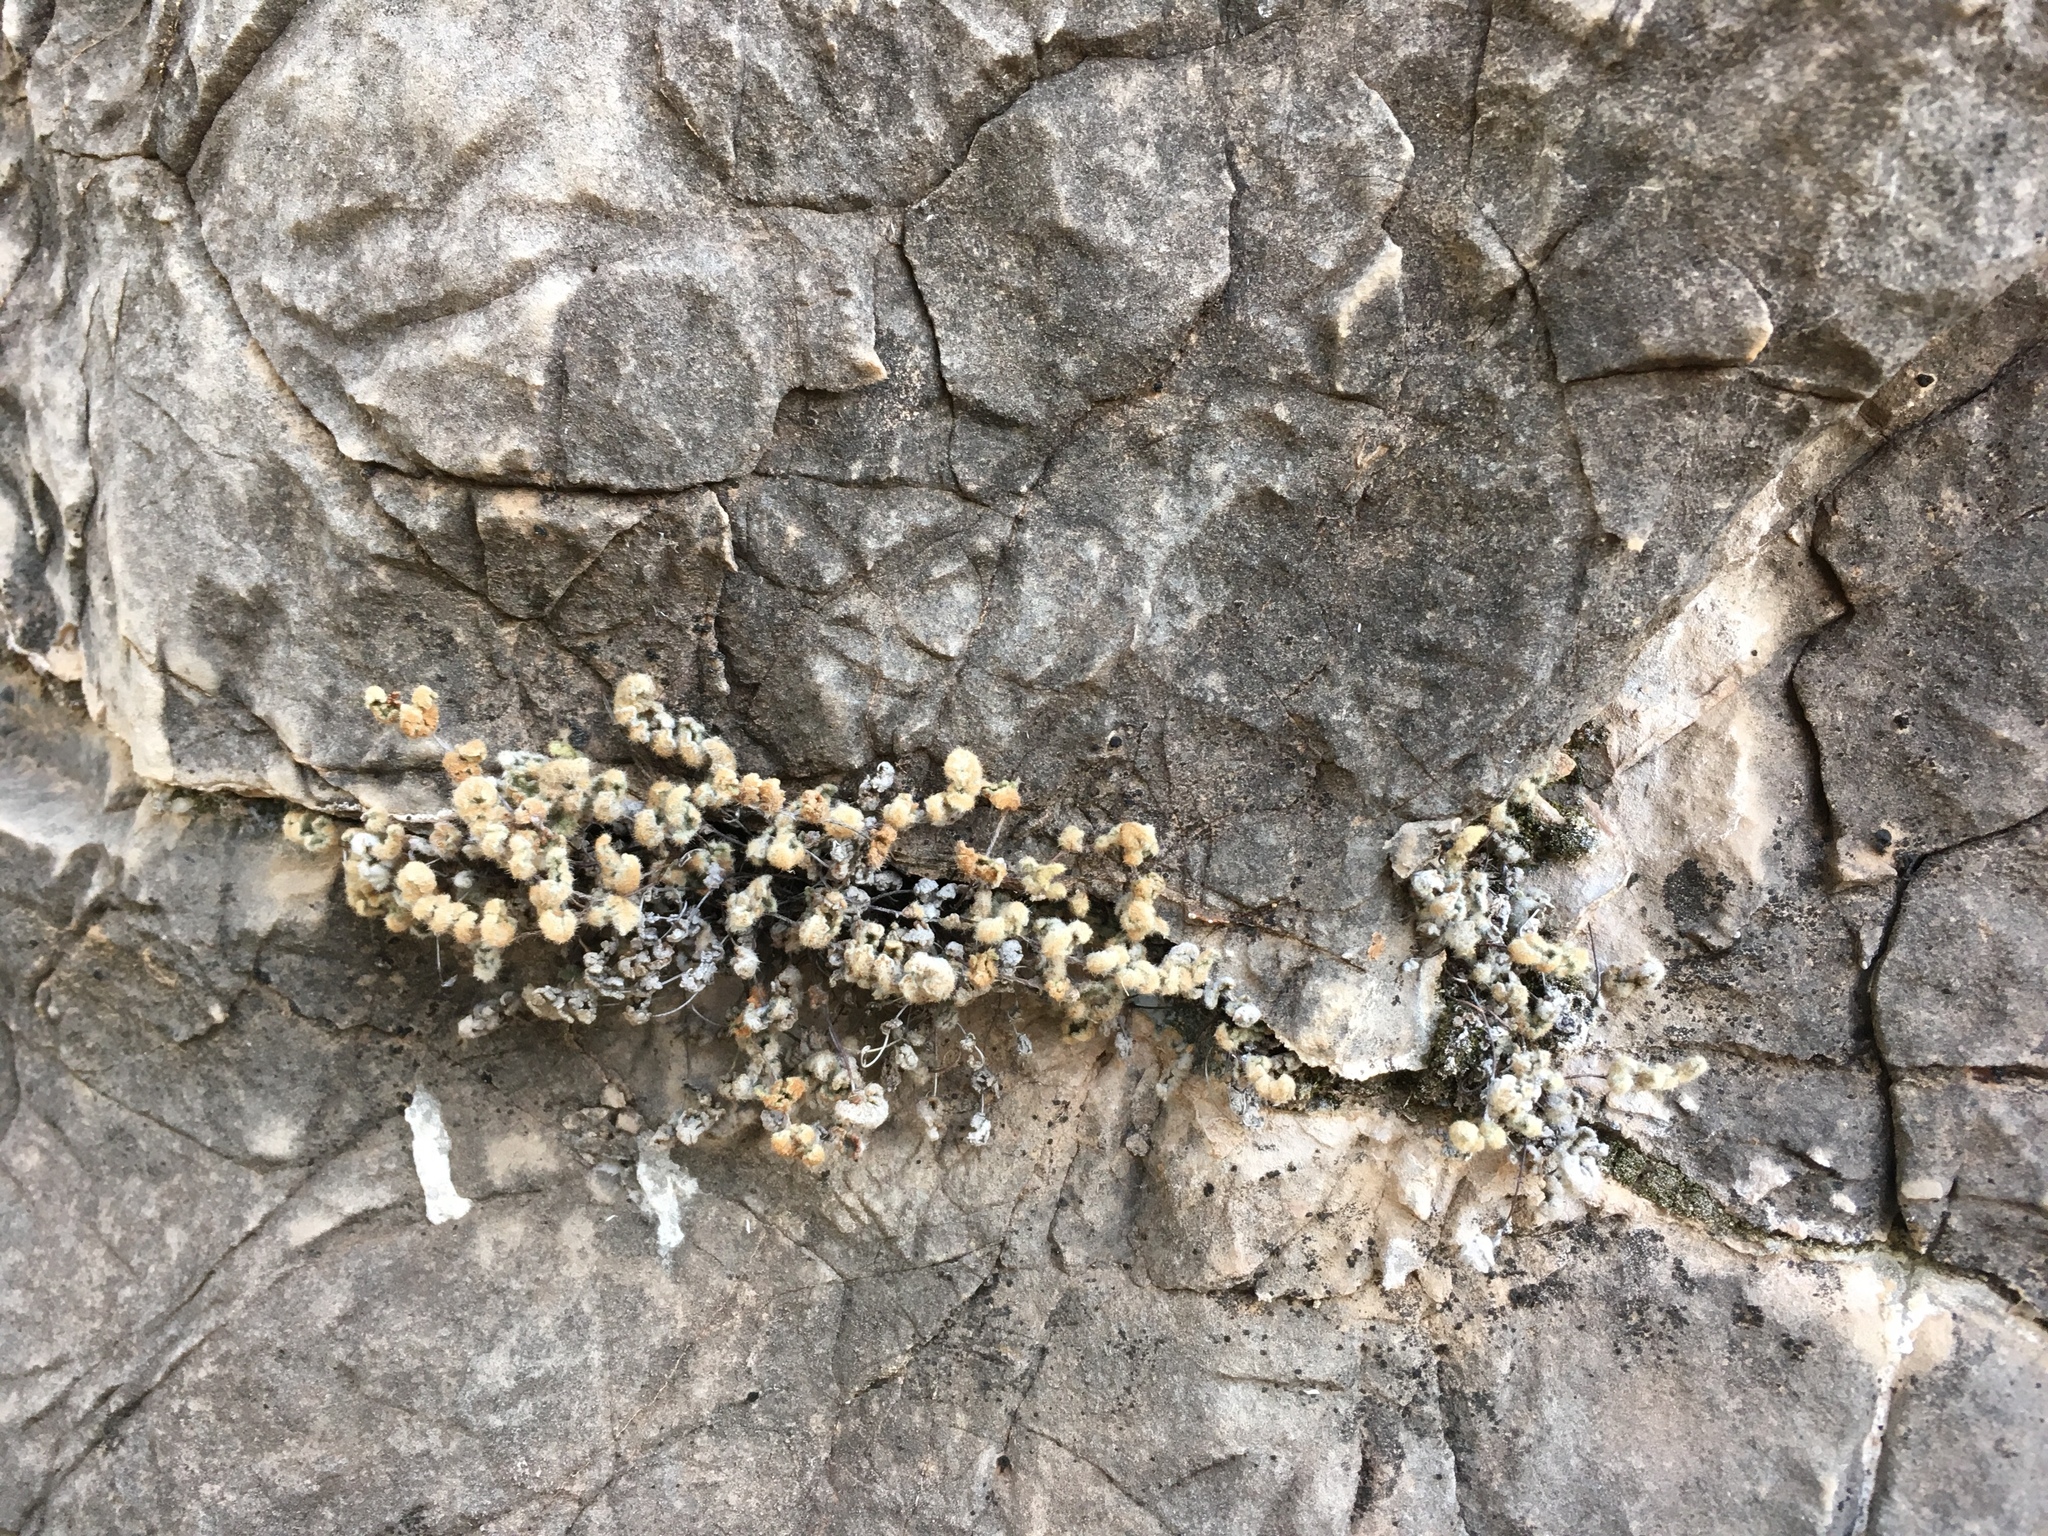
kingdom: Plantae
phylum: Tracheophyta
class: Polypodiopsida
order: Polypodiales
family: Pteridaceae
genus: Myriopteris
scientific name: Myriopteris gracilis
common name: Fee's lip fern
